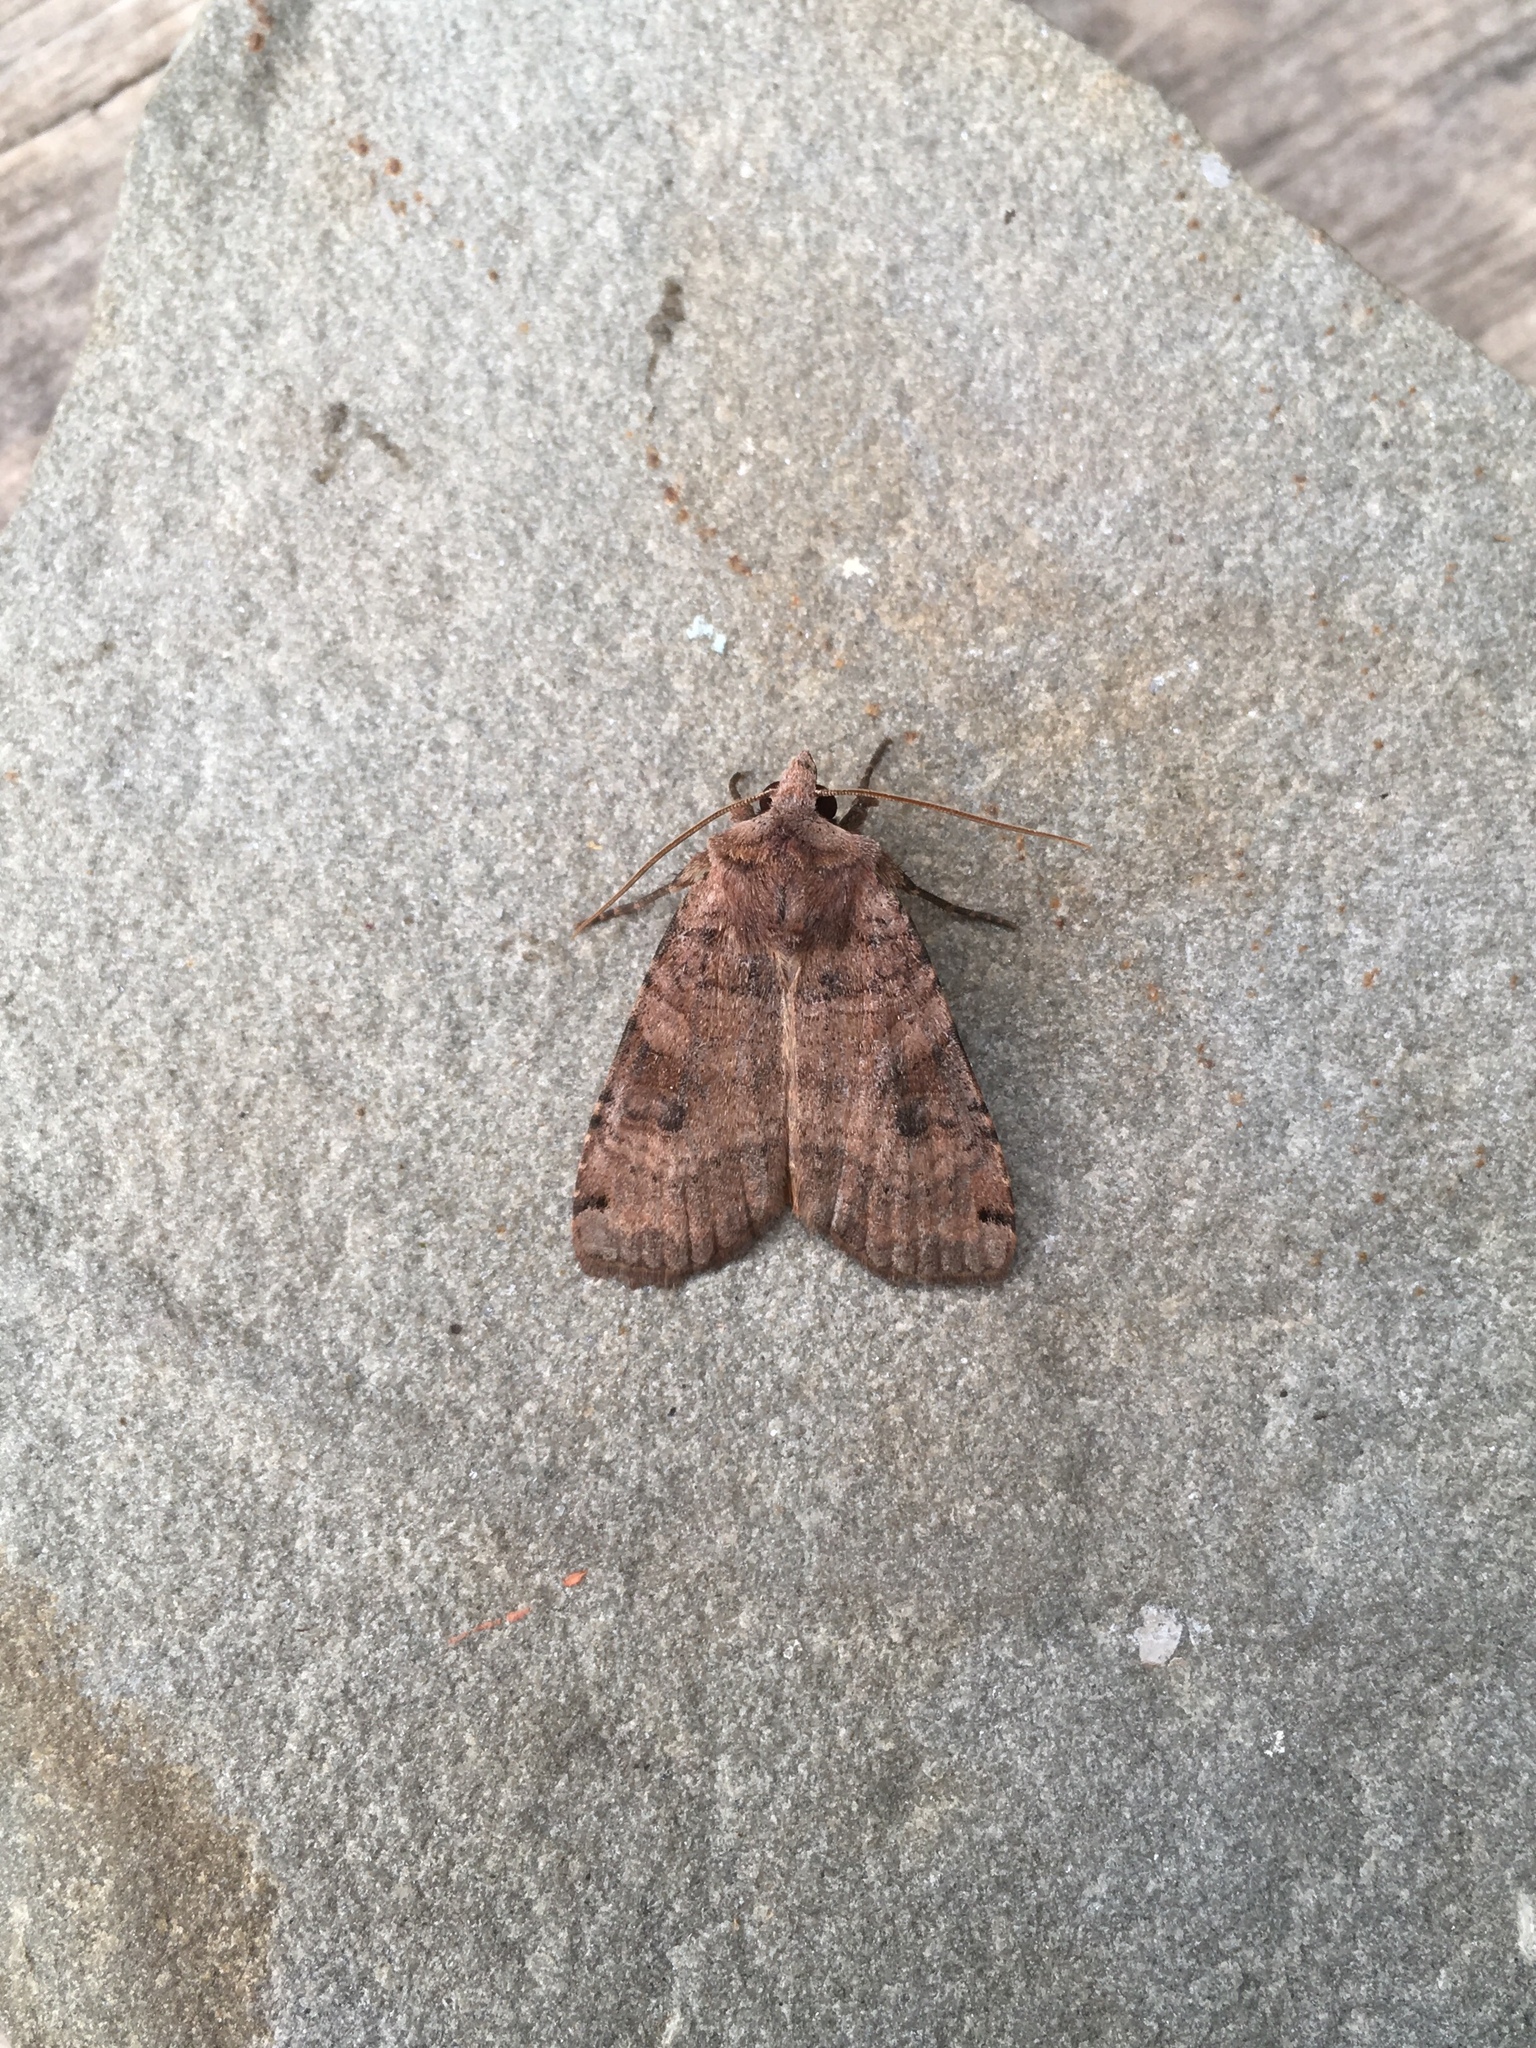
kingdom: Animalia
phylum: Arthropoda
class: Insecta
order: Lepidoptera
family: Noctuidae
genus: Xestia
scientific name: Xestia smithii
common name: Smith's dart
